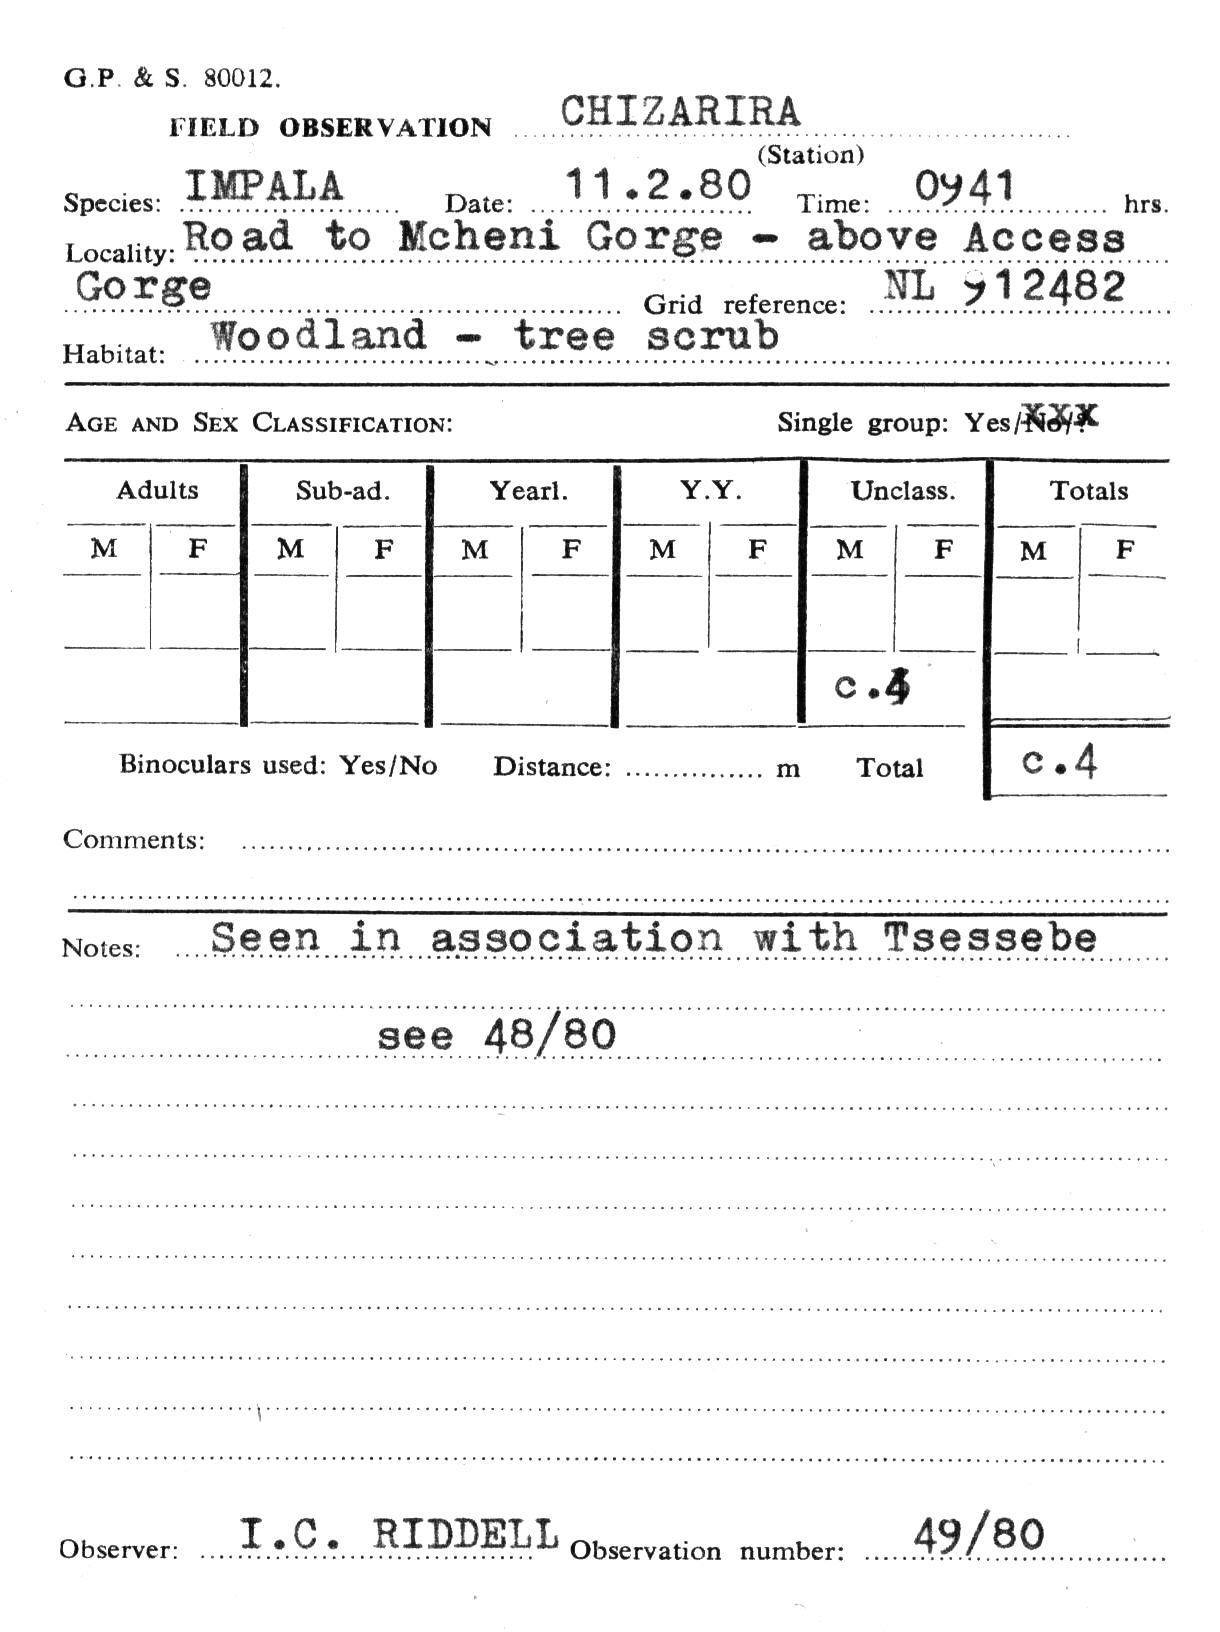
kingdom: Animalia
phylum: Chordata
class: Mammalia
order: Artiodactyla
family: Bovidae
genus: Aepyceros
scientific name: Aepyceros melampus
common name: Impala
